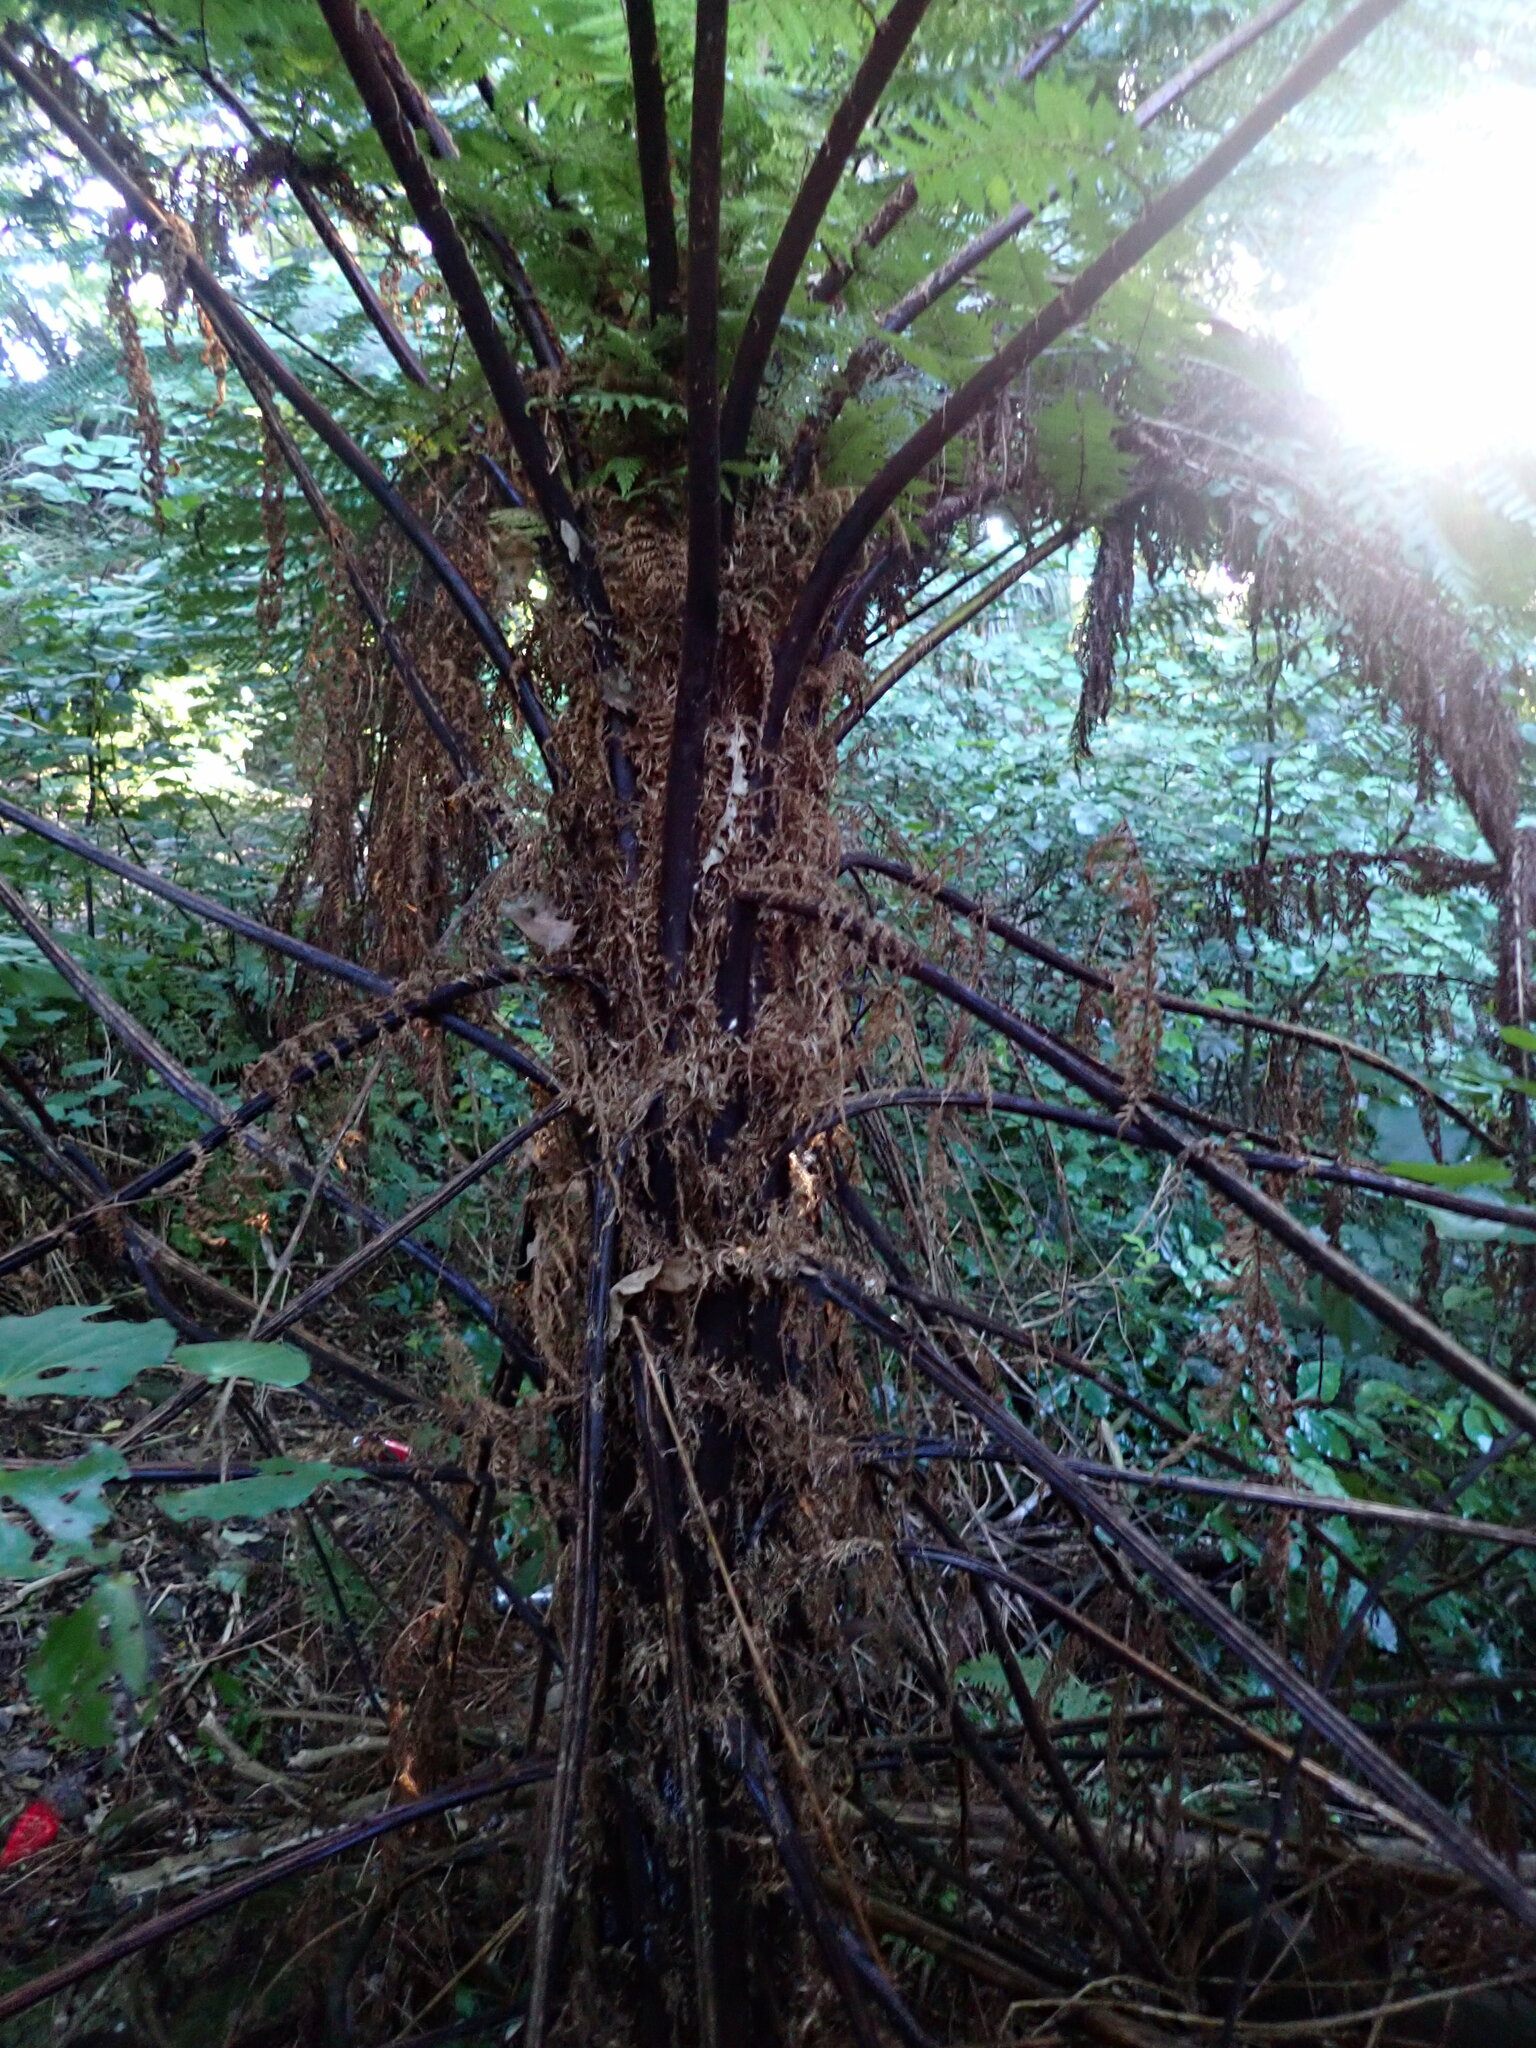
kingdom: Plantae
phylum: Tracheophyta
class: Polypodiopsida
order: Cyatheales
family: Cyatheaceae
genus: Cyathea
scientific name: Cyathea cunninghamii
